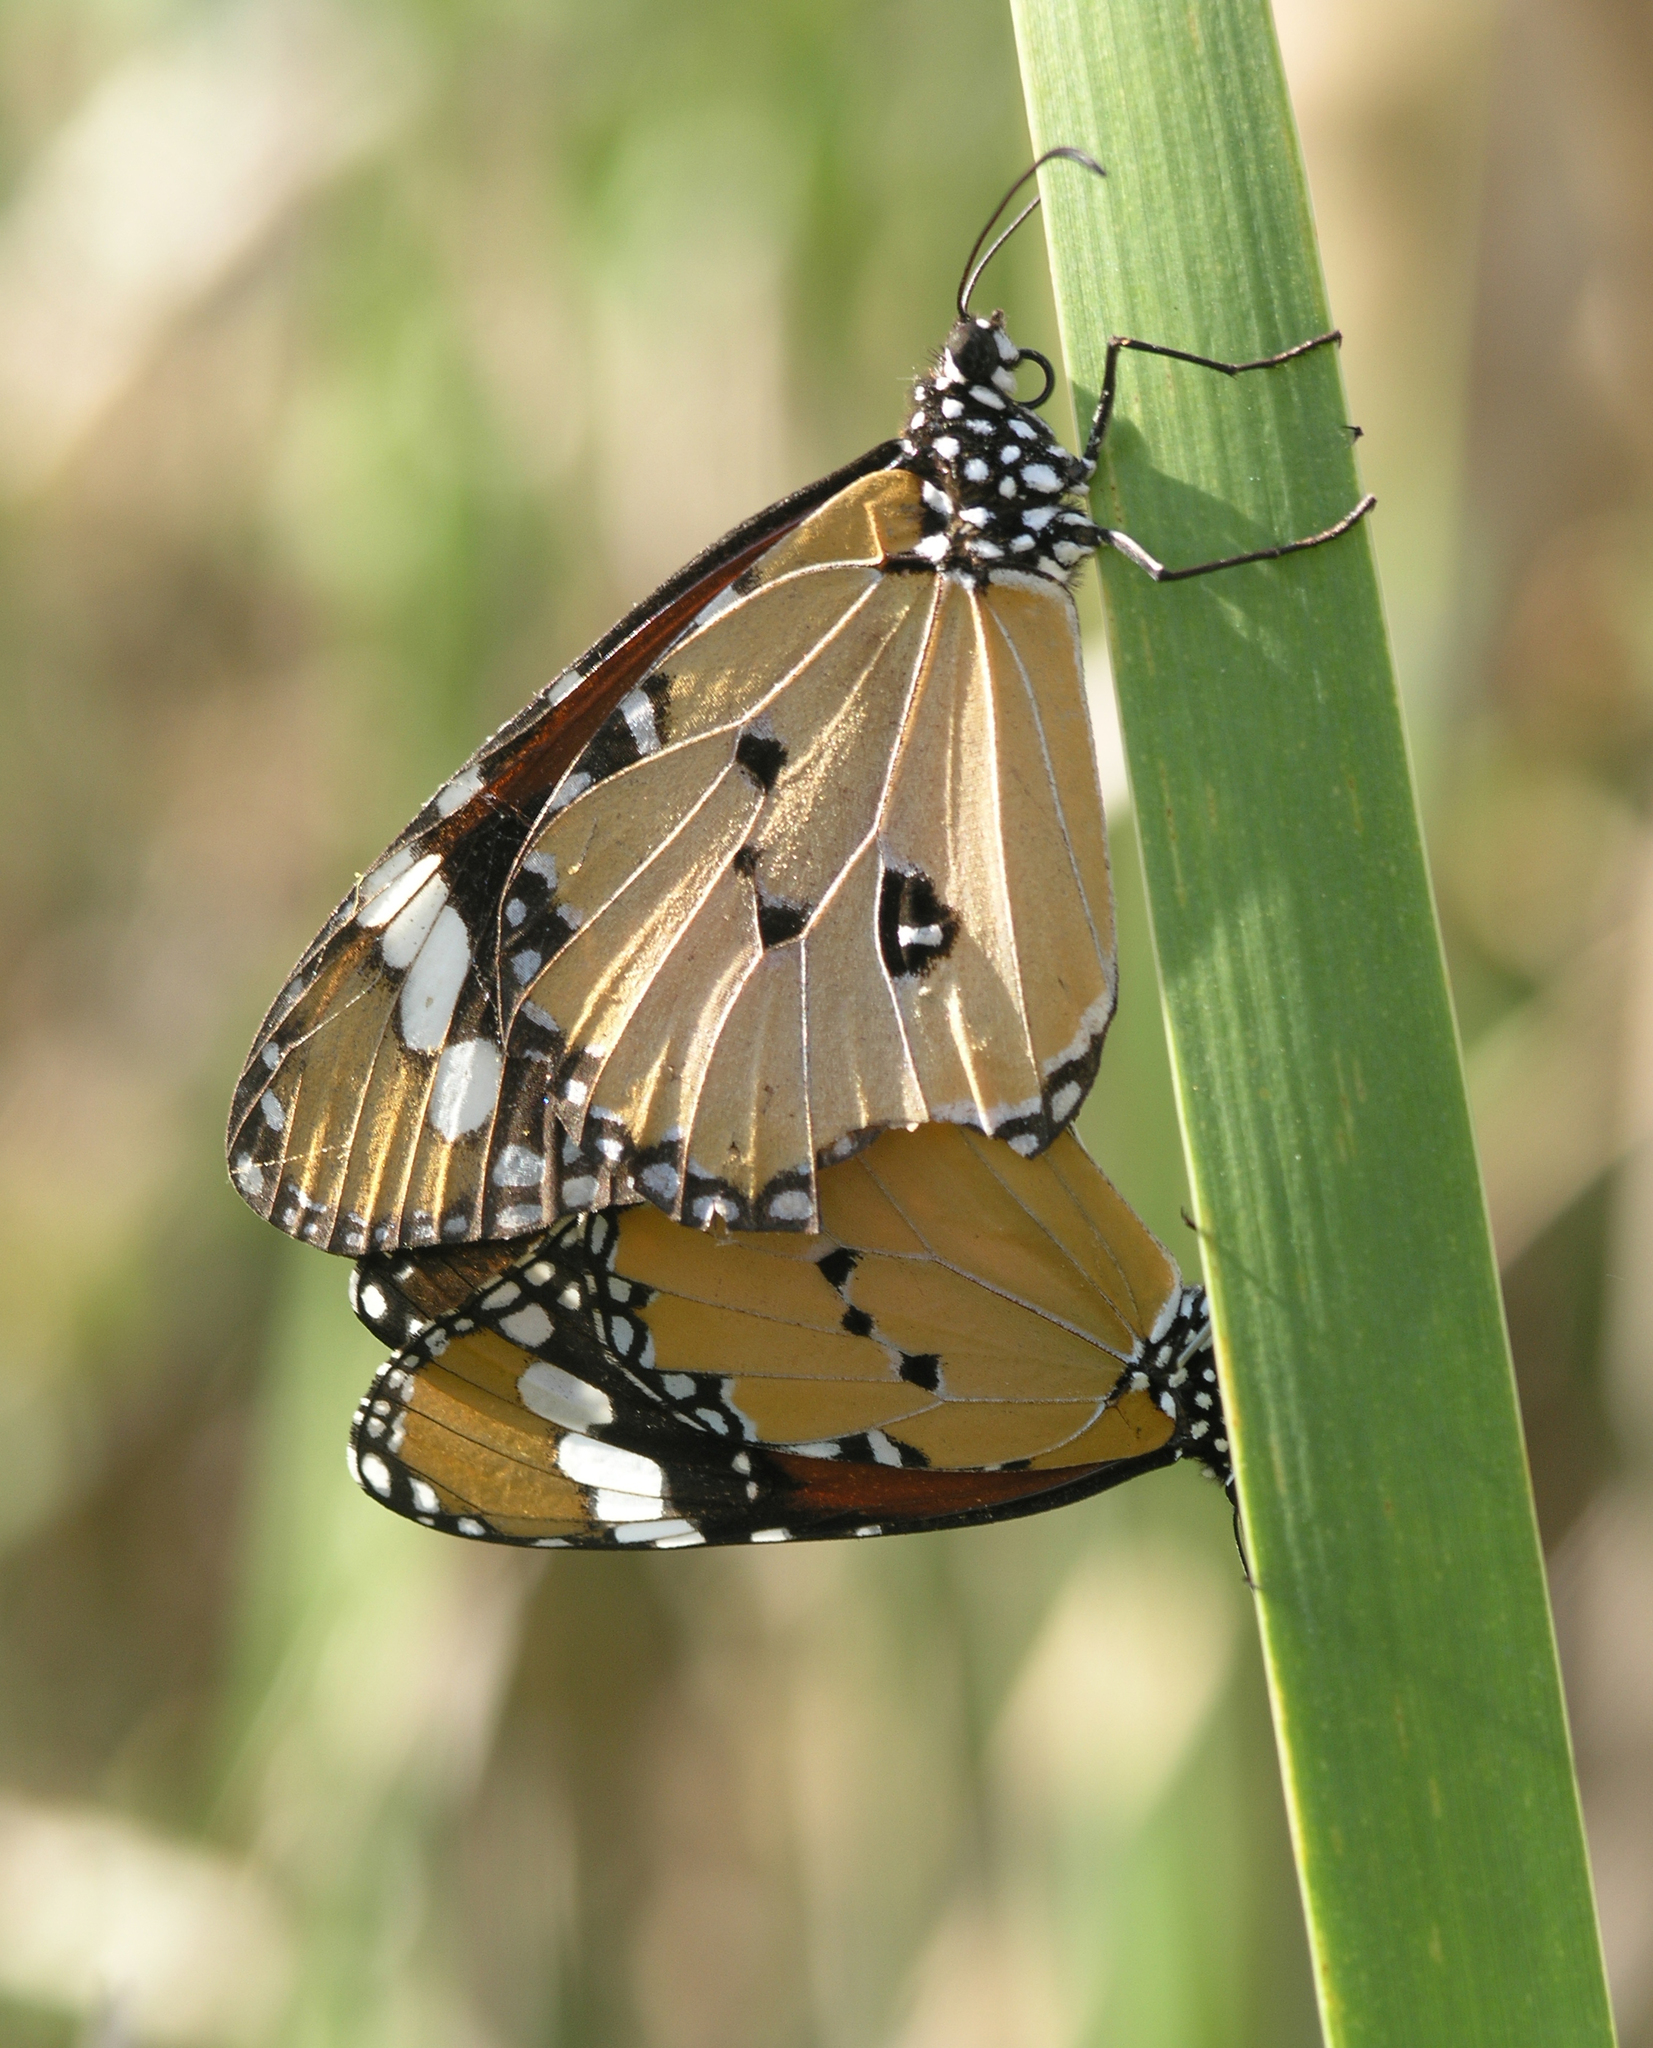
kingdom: Animalia
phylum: Arthropoda
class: Insecta
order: Lepidoptera
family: Nymphalidae
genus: Danaus
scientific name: Danaus chrysippus
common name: Plain tiger
